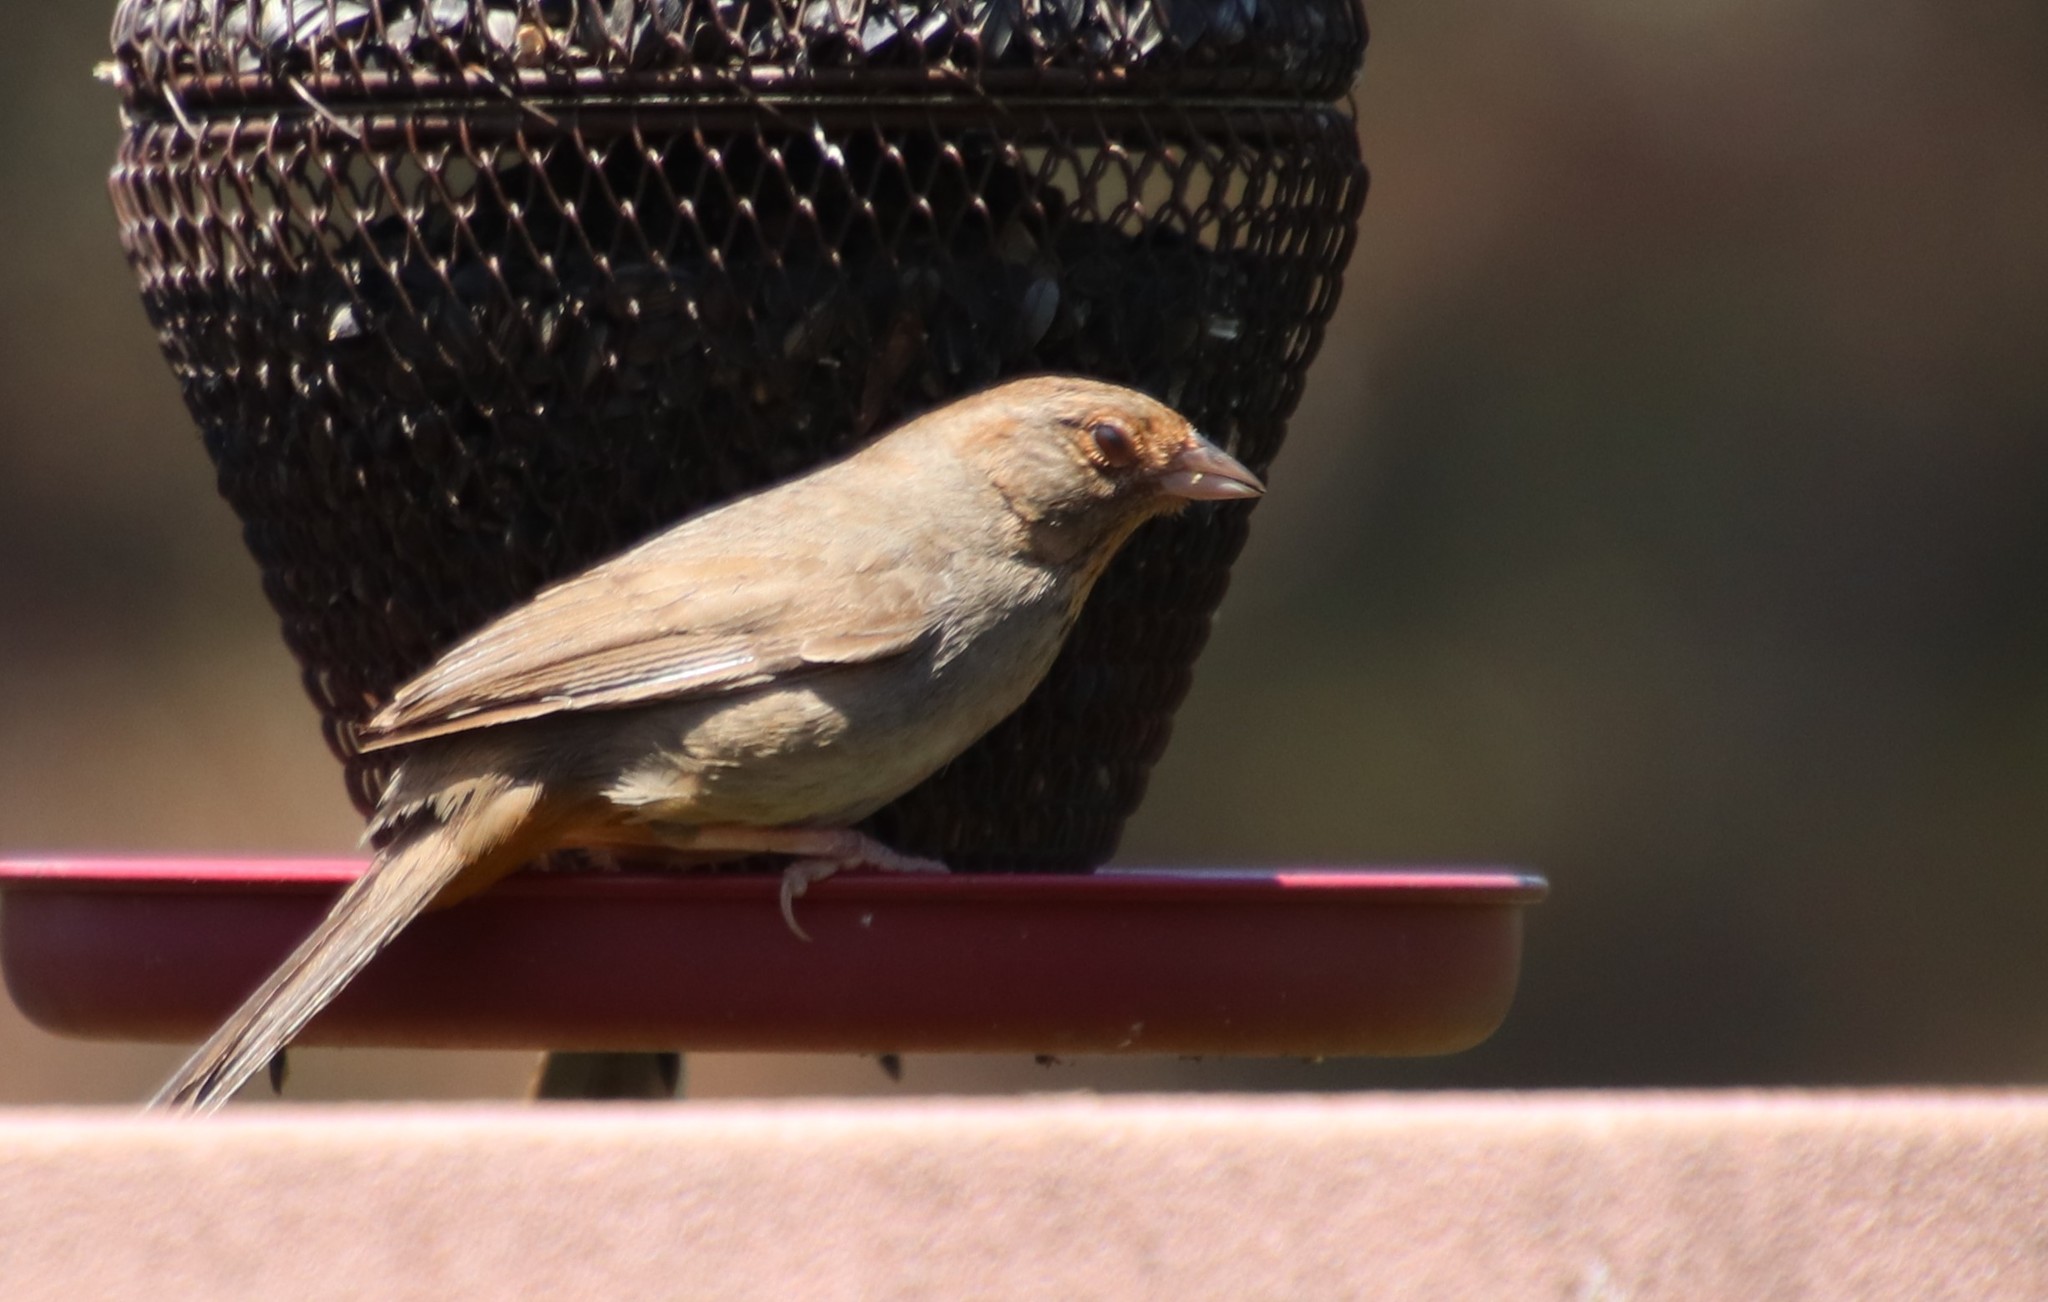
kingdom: Animalia
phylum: Chordata
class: Aves
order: Passeriformes
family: Passerellidae
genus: Melozone
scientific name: Melozone crissalis
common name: California towhee
